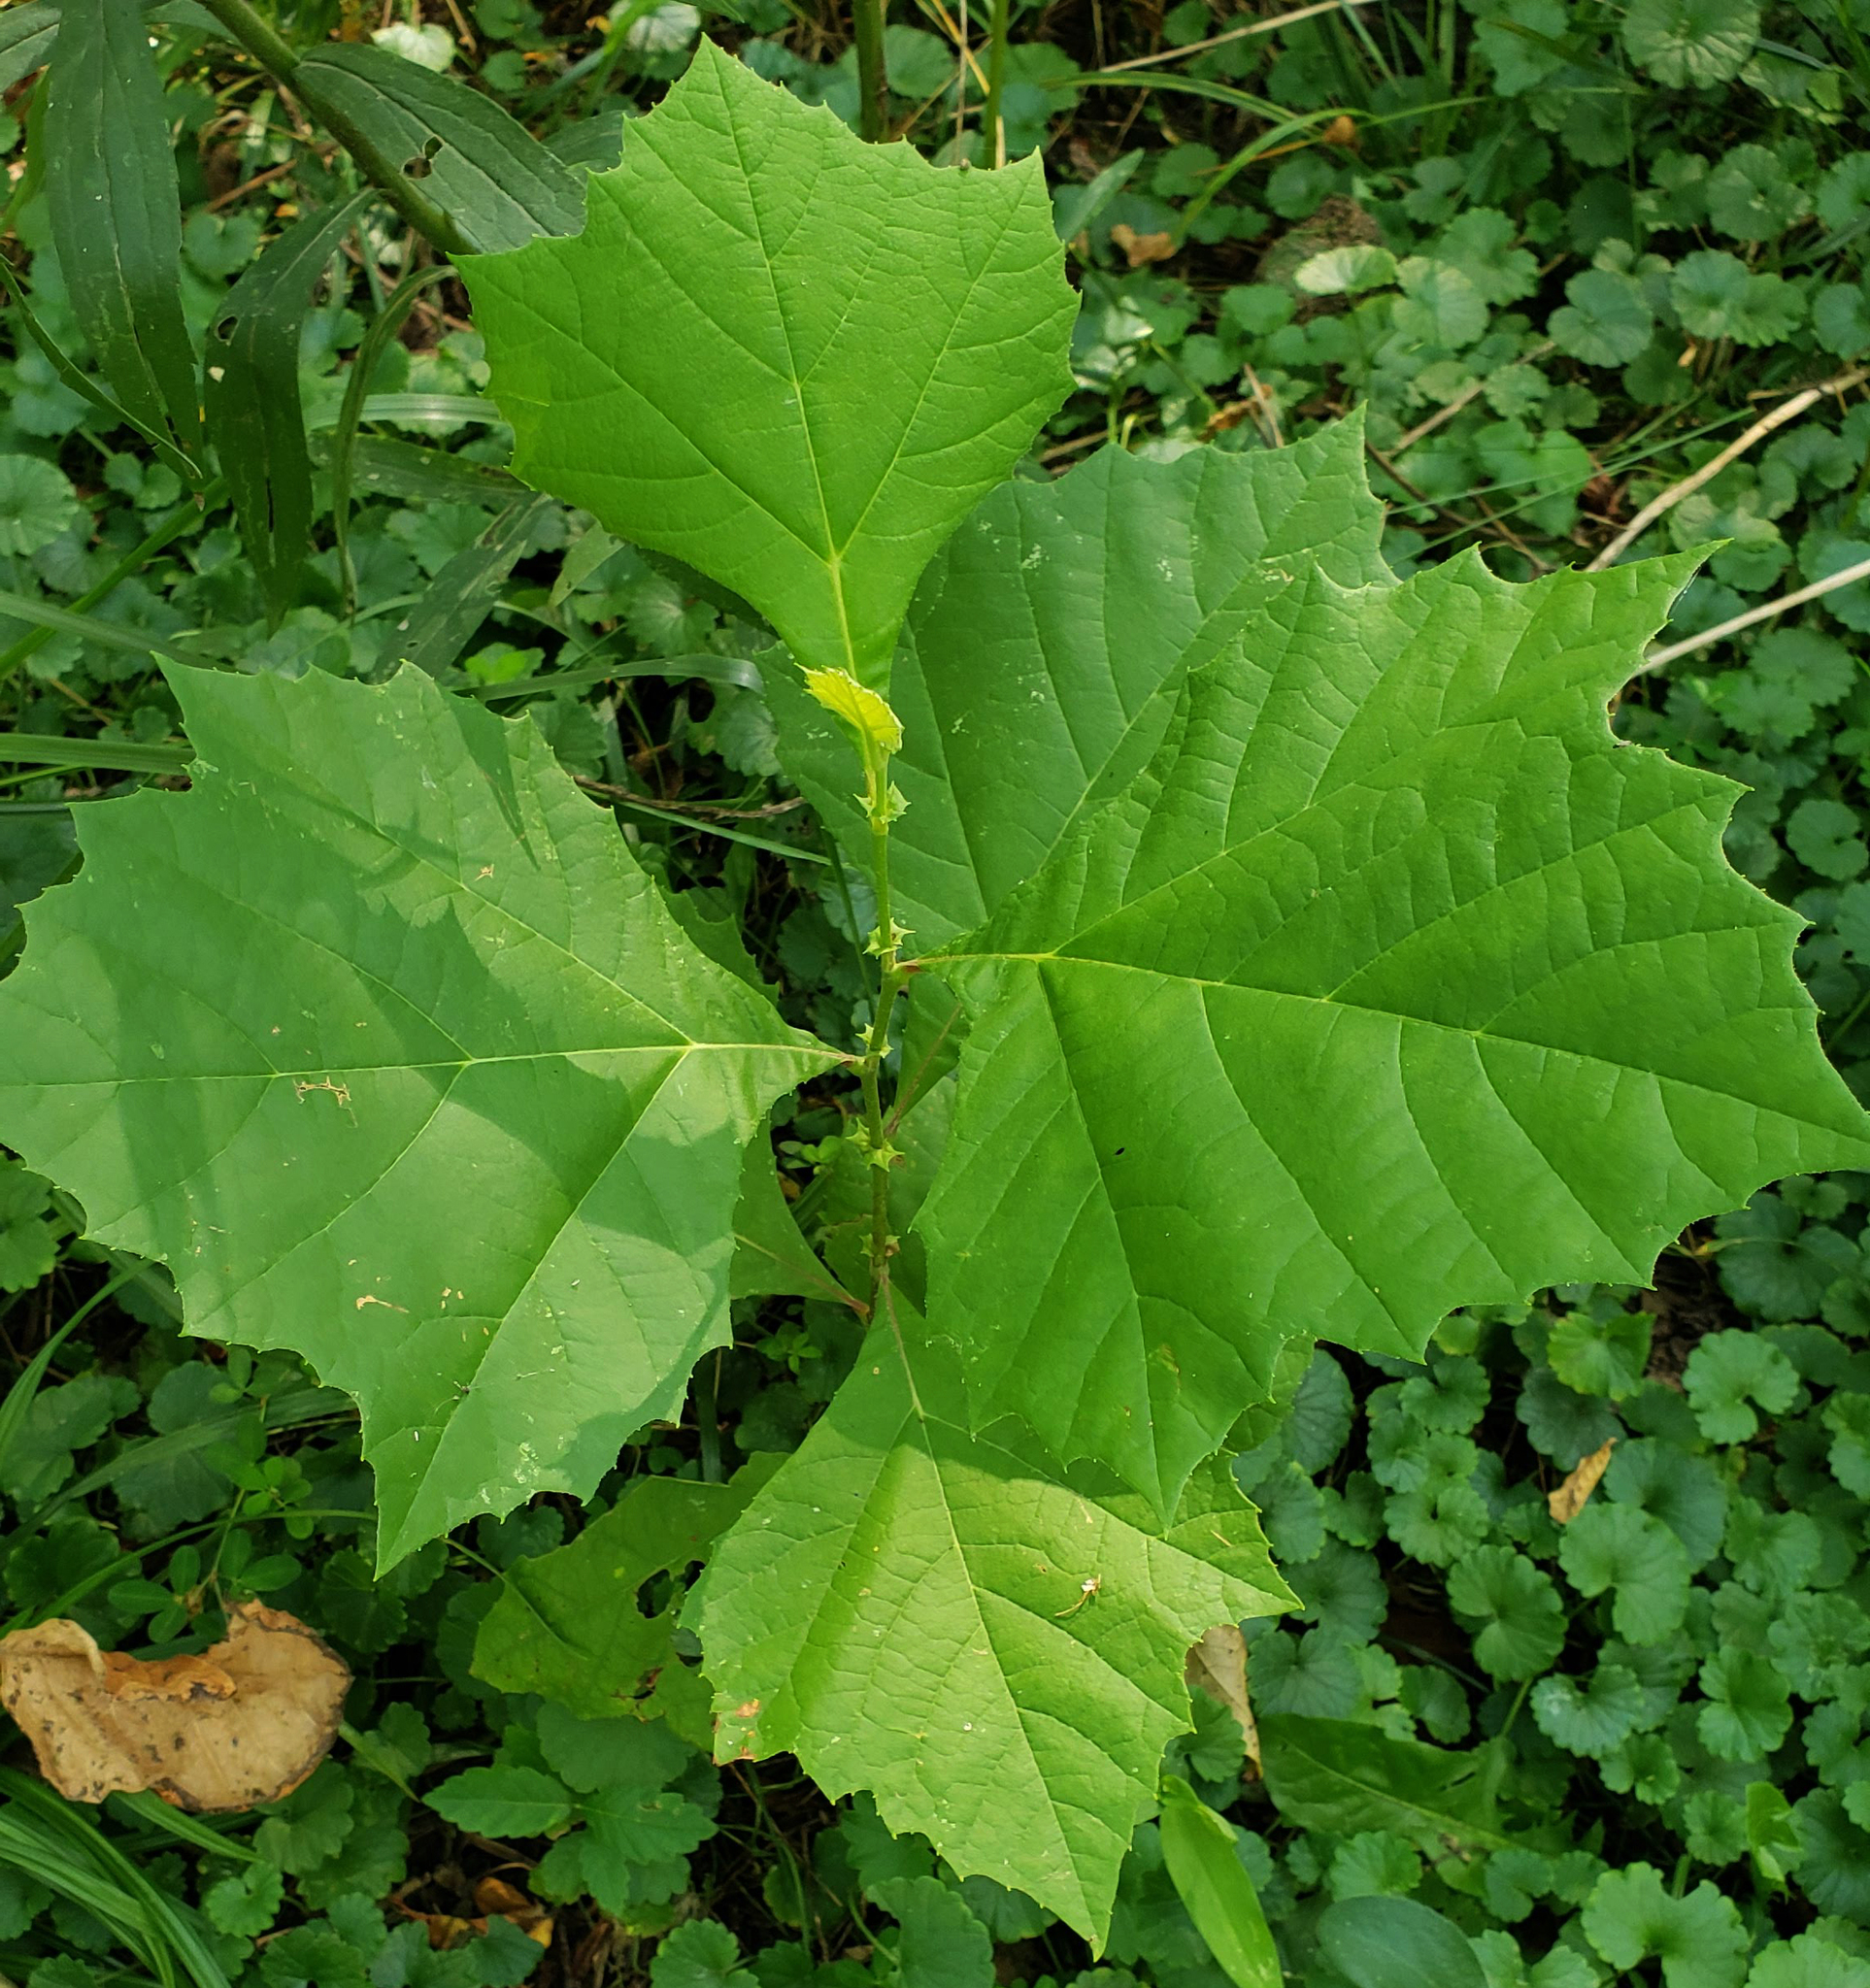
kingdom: Plantae
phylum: Tracheophyta
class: Magnoliopsida
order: Proteales
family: Platanaceae
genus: Platanus
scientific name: Platanus occidentalis
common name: American sycamore
